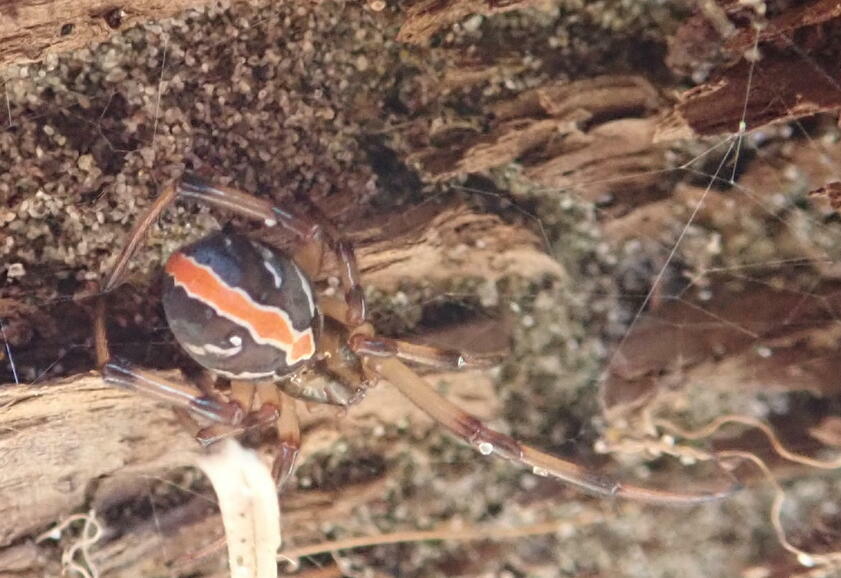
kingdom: Animalia
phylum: Arthropoda
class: Arachnida
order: Araneae
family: Theridiidae
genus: Latrodectus
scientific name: Latrodectus katipo
